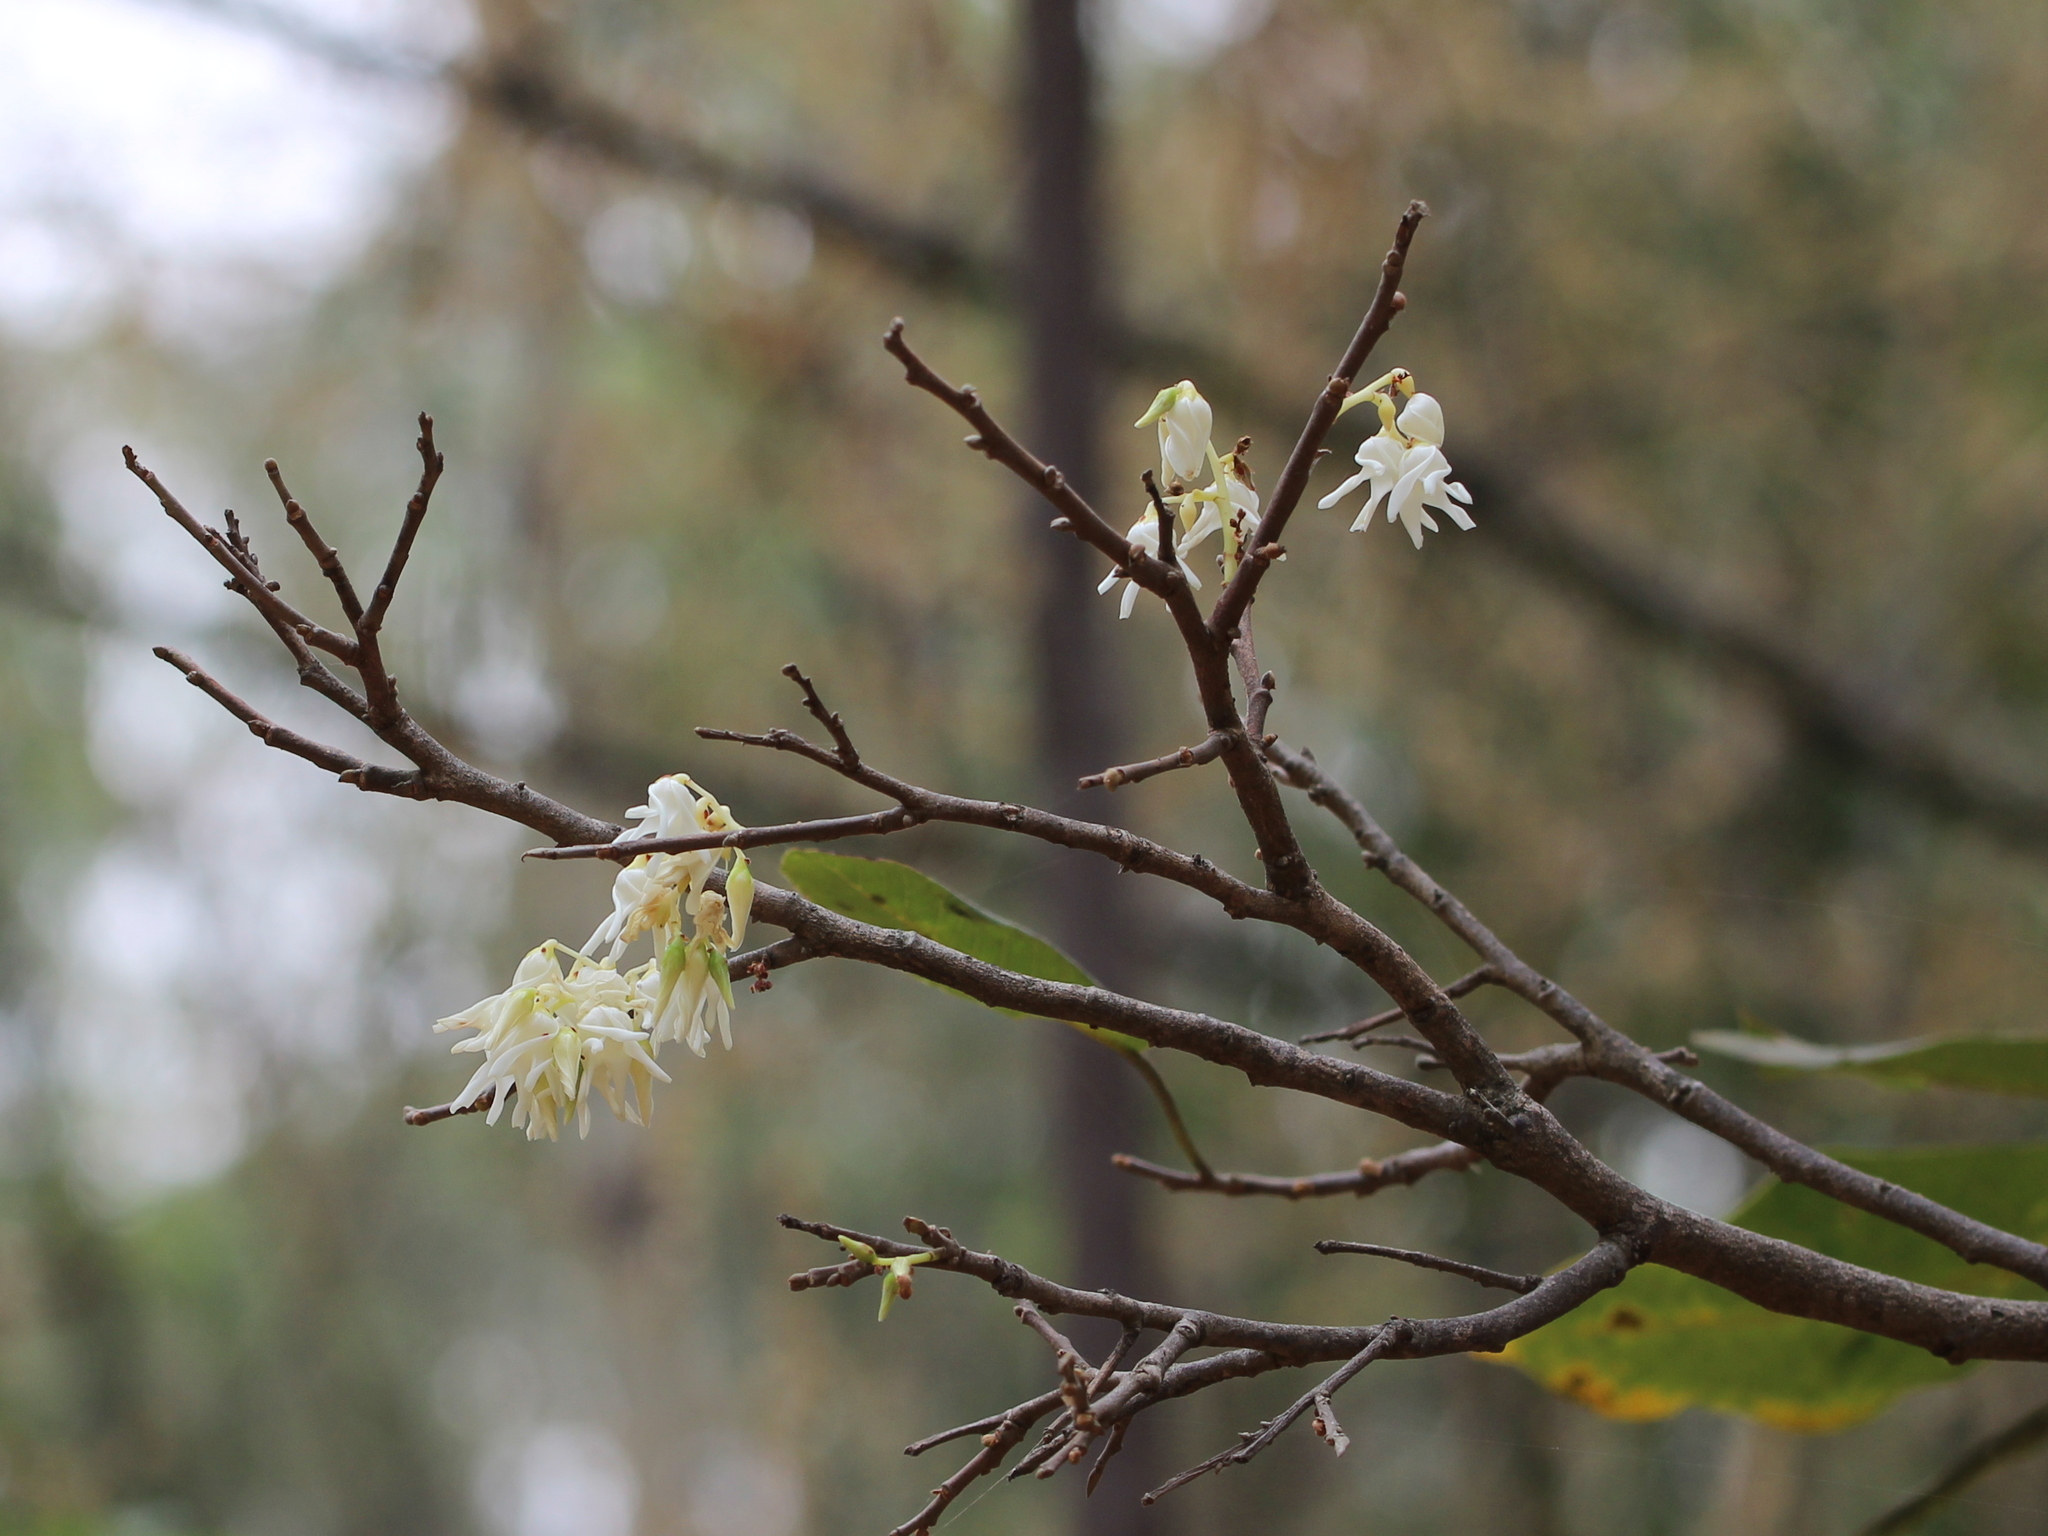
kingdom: Plantae
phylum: Tracheophyta
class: Magnoliopsida
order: Malvales
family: Dipterocarpaceae
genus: Anthoshorea
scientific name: Anthoshorea roxburghii
